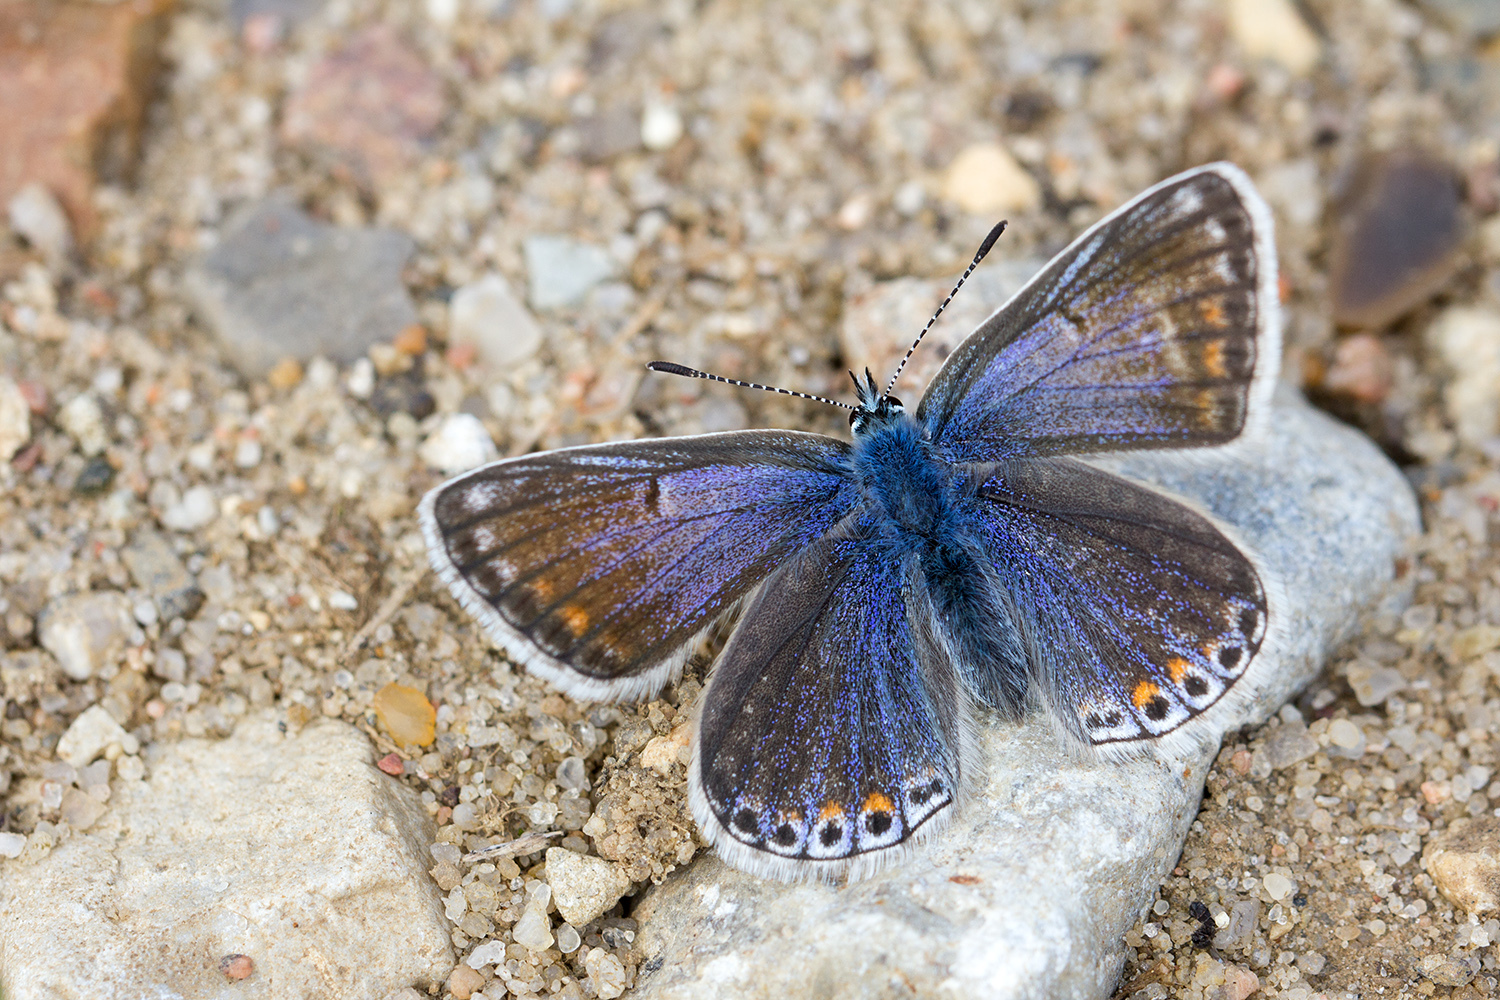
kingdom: Animalia
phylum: Arthropoda
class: Insecta
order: Lepidoptera
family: Lycaenidae
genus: Polyommatus
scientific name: Polyommatus icarus
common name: Common blue
